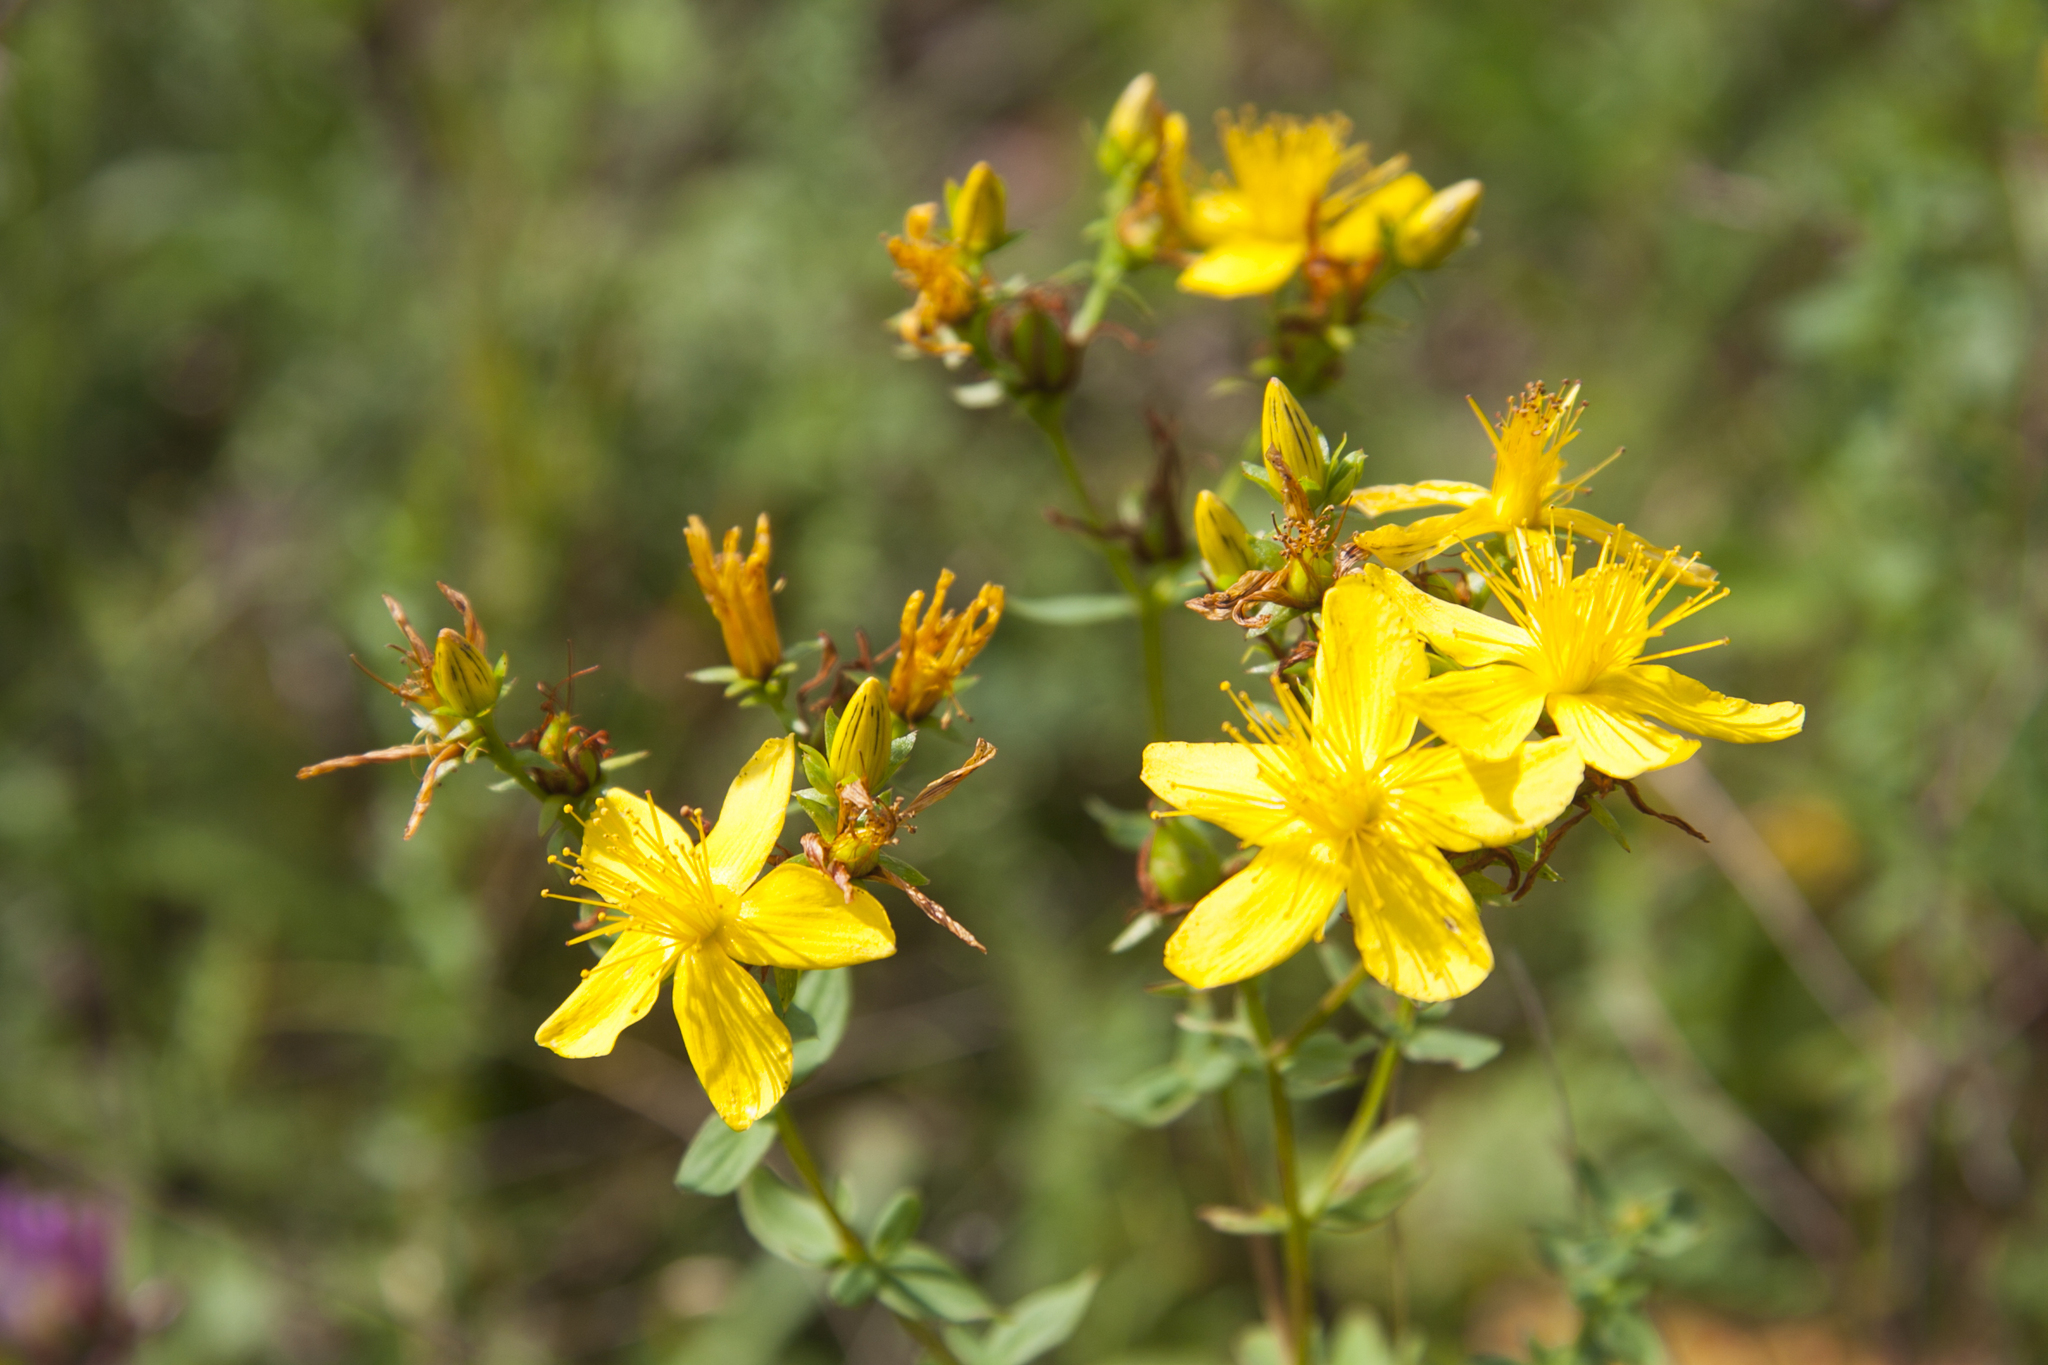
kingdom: Plantae
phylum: Tracheophyta
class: Magnoliopsida
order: Malpighiales
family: Hypericaceae
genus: Hypericum
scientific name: Hypericum perforatum
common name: Common st. johnswort
